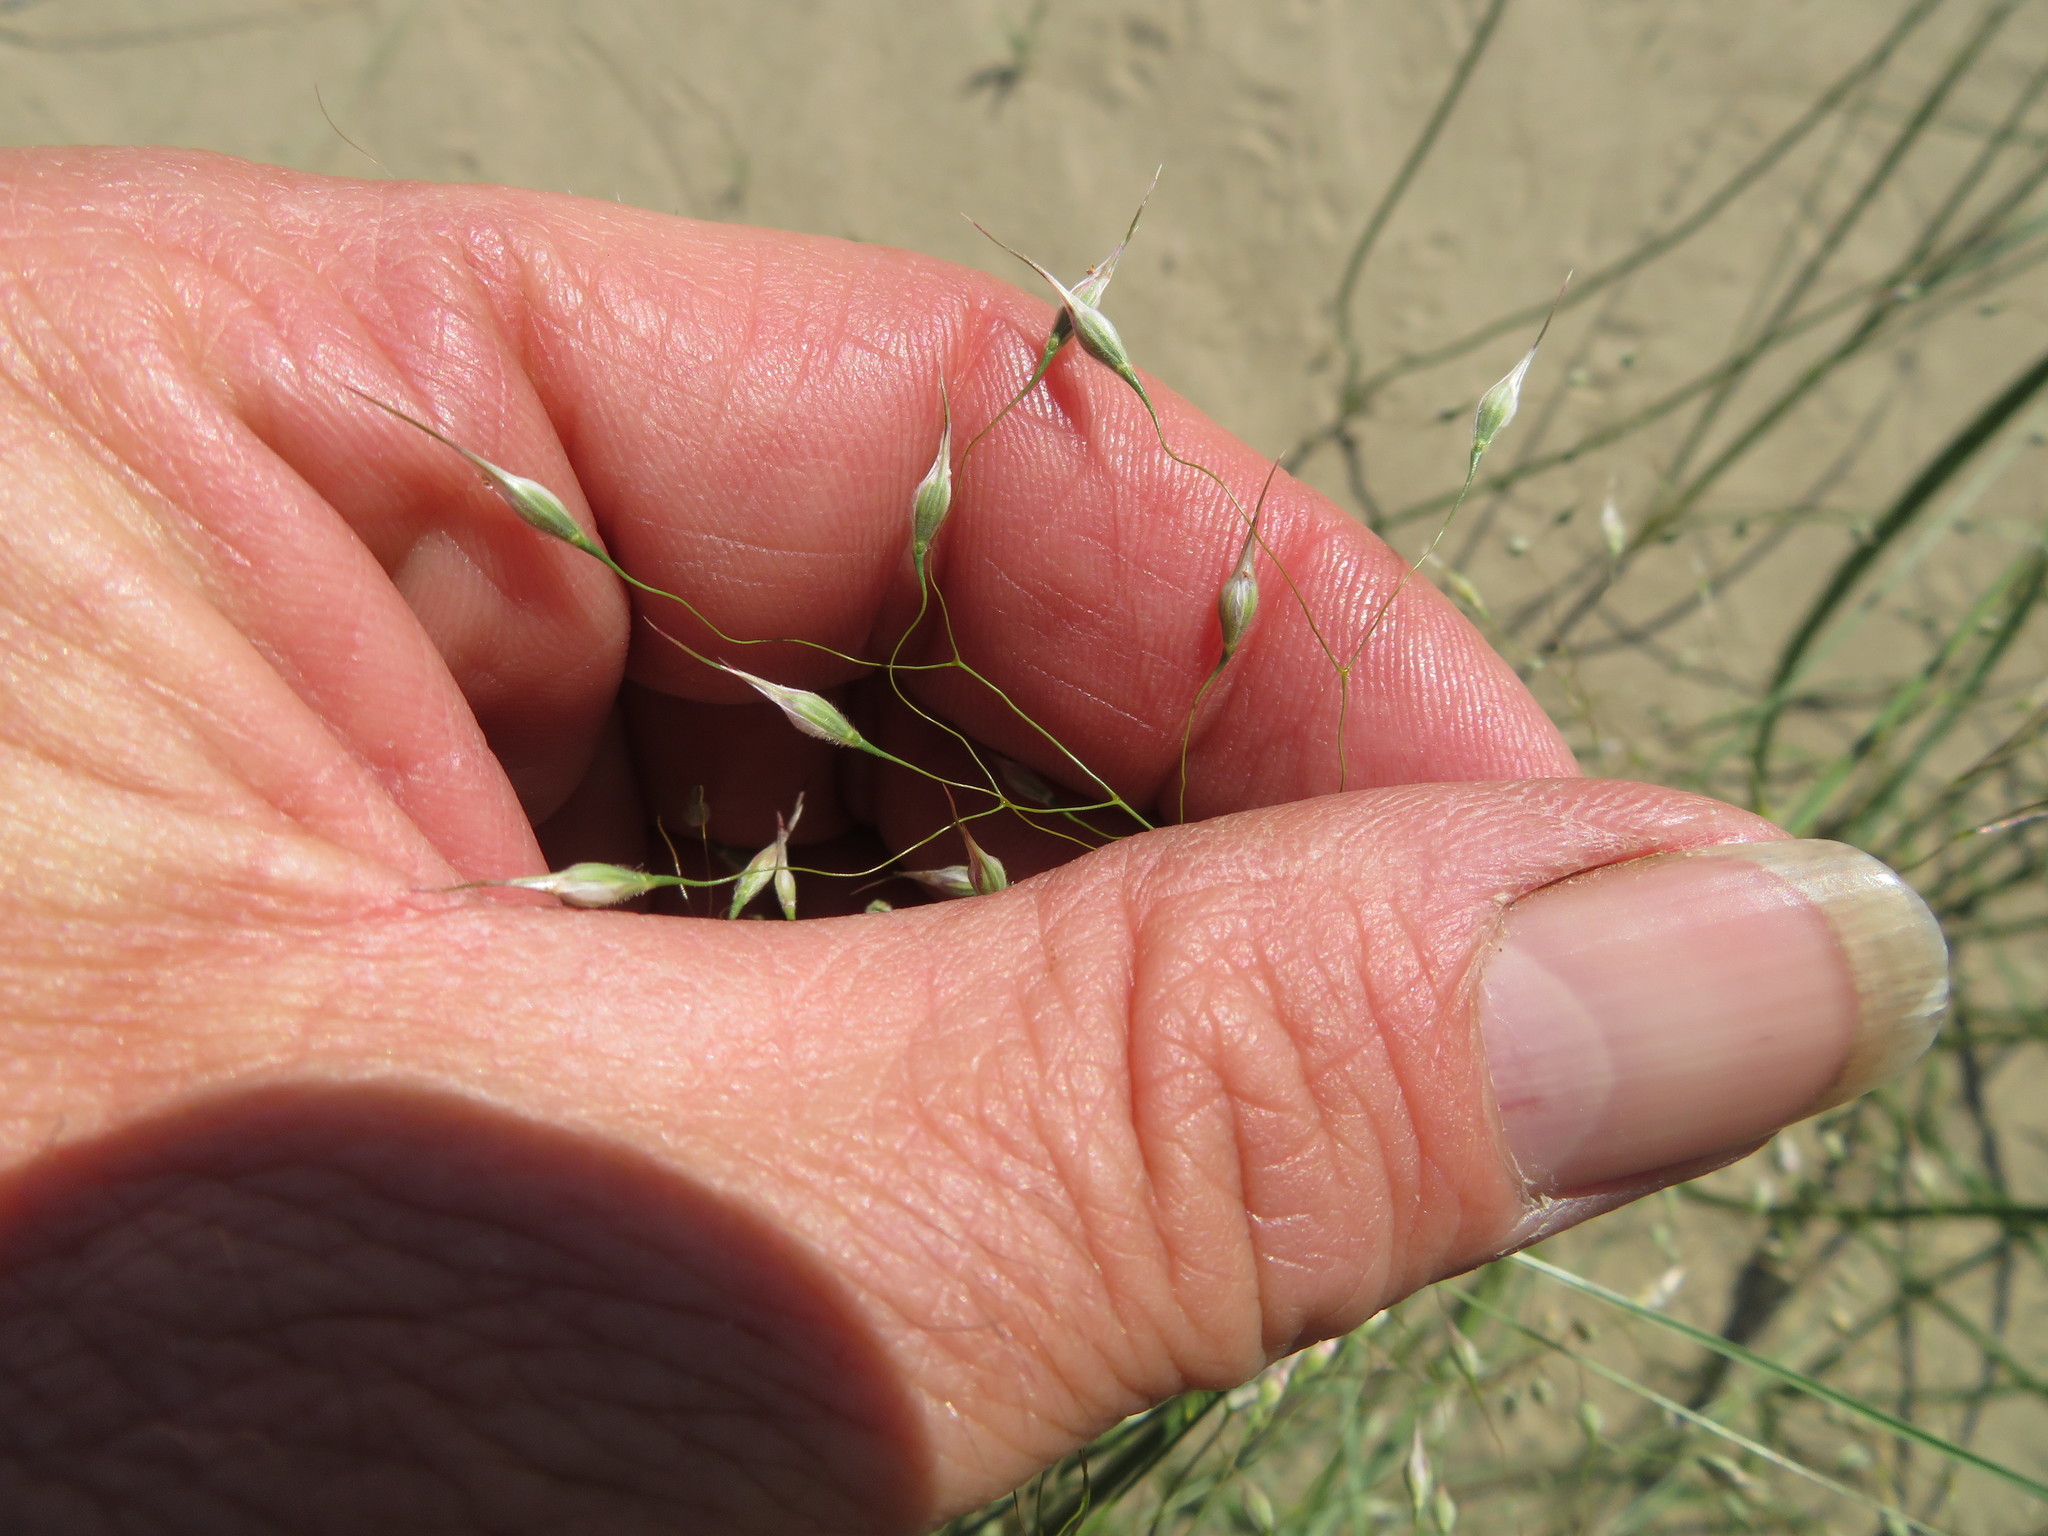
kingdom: Plantae
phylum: Tracheophyta
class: Liliopsida
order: Poales
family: Poaceae
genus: Eriocoma
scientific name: Eriocoma hymenoides
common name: Indian mountain ricegrass
